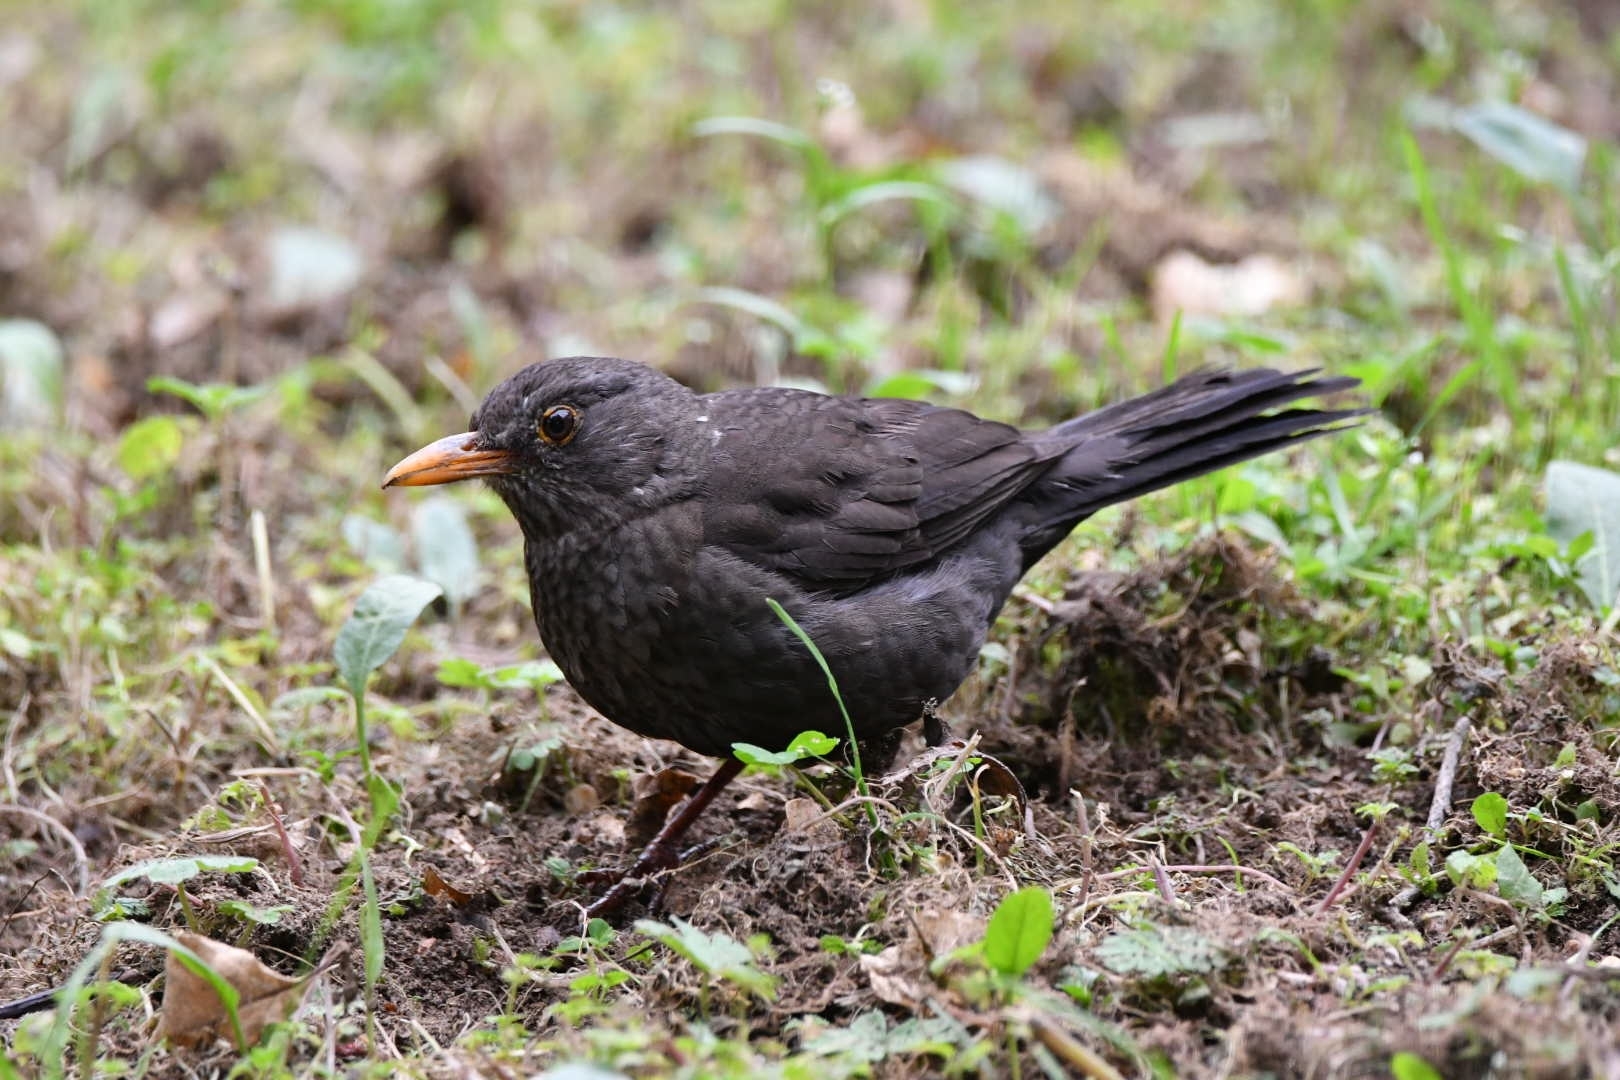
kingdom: Animalia
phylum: Chordata
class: Aves
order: Passeriformes
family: Turdidae
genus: Turdus
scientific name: Turdus merula
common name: Common blackbird
